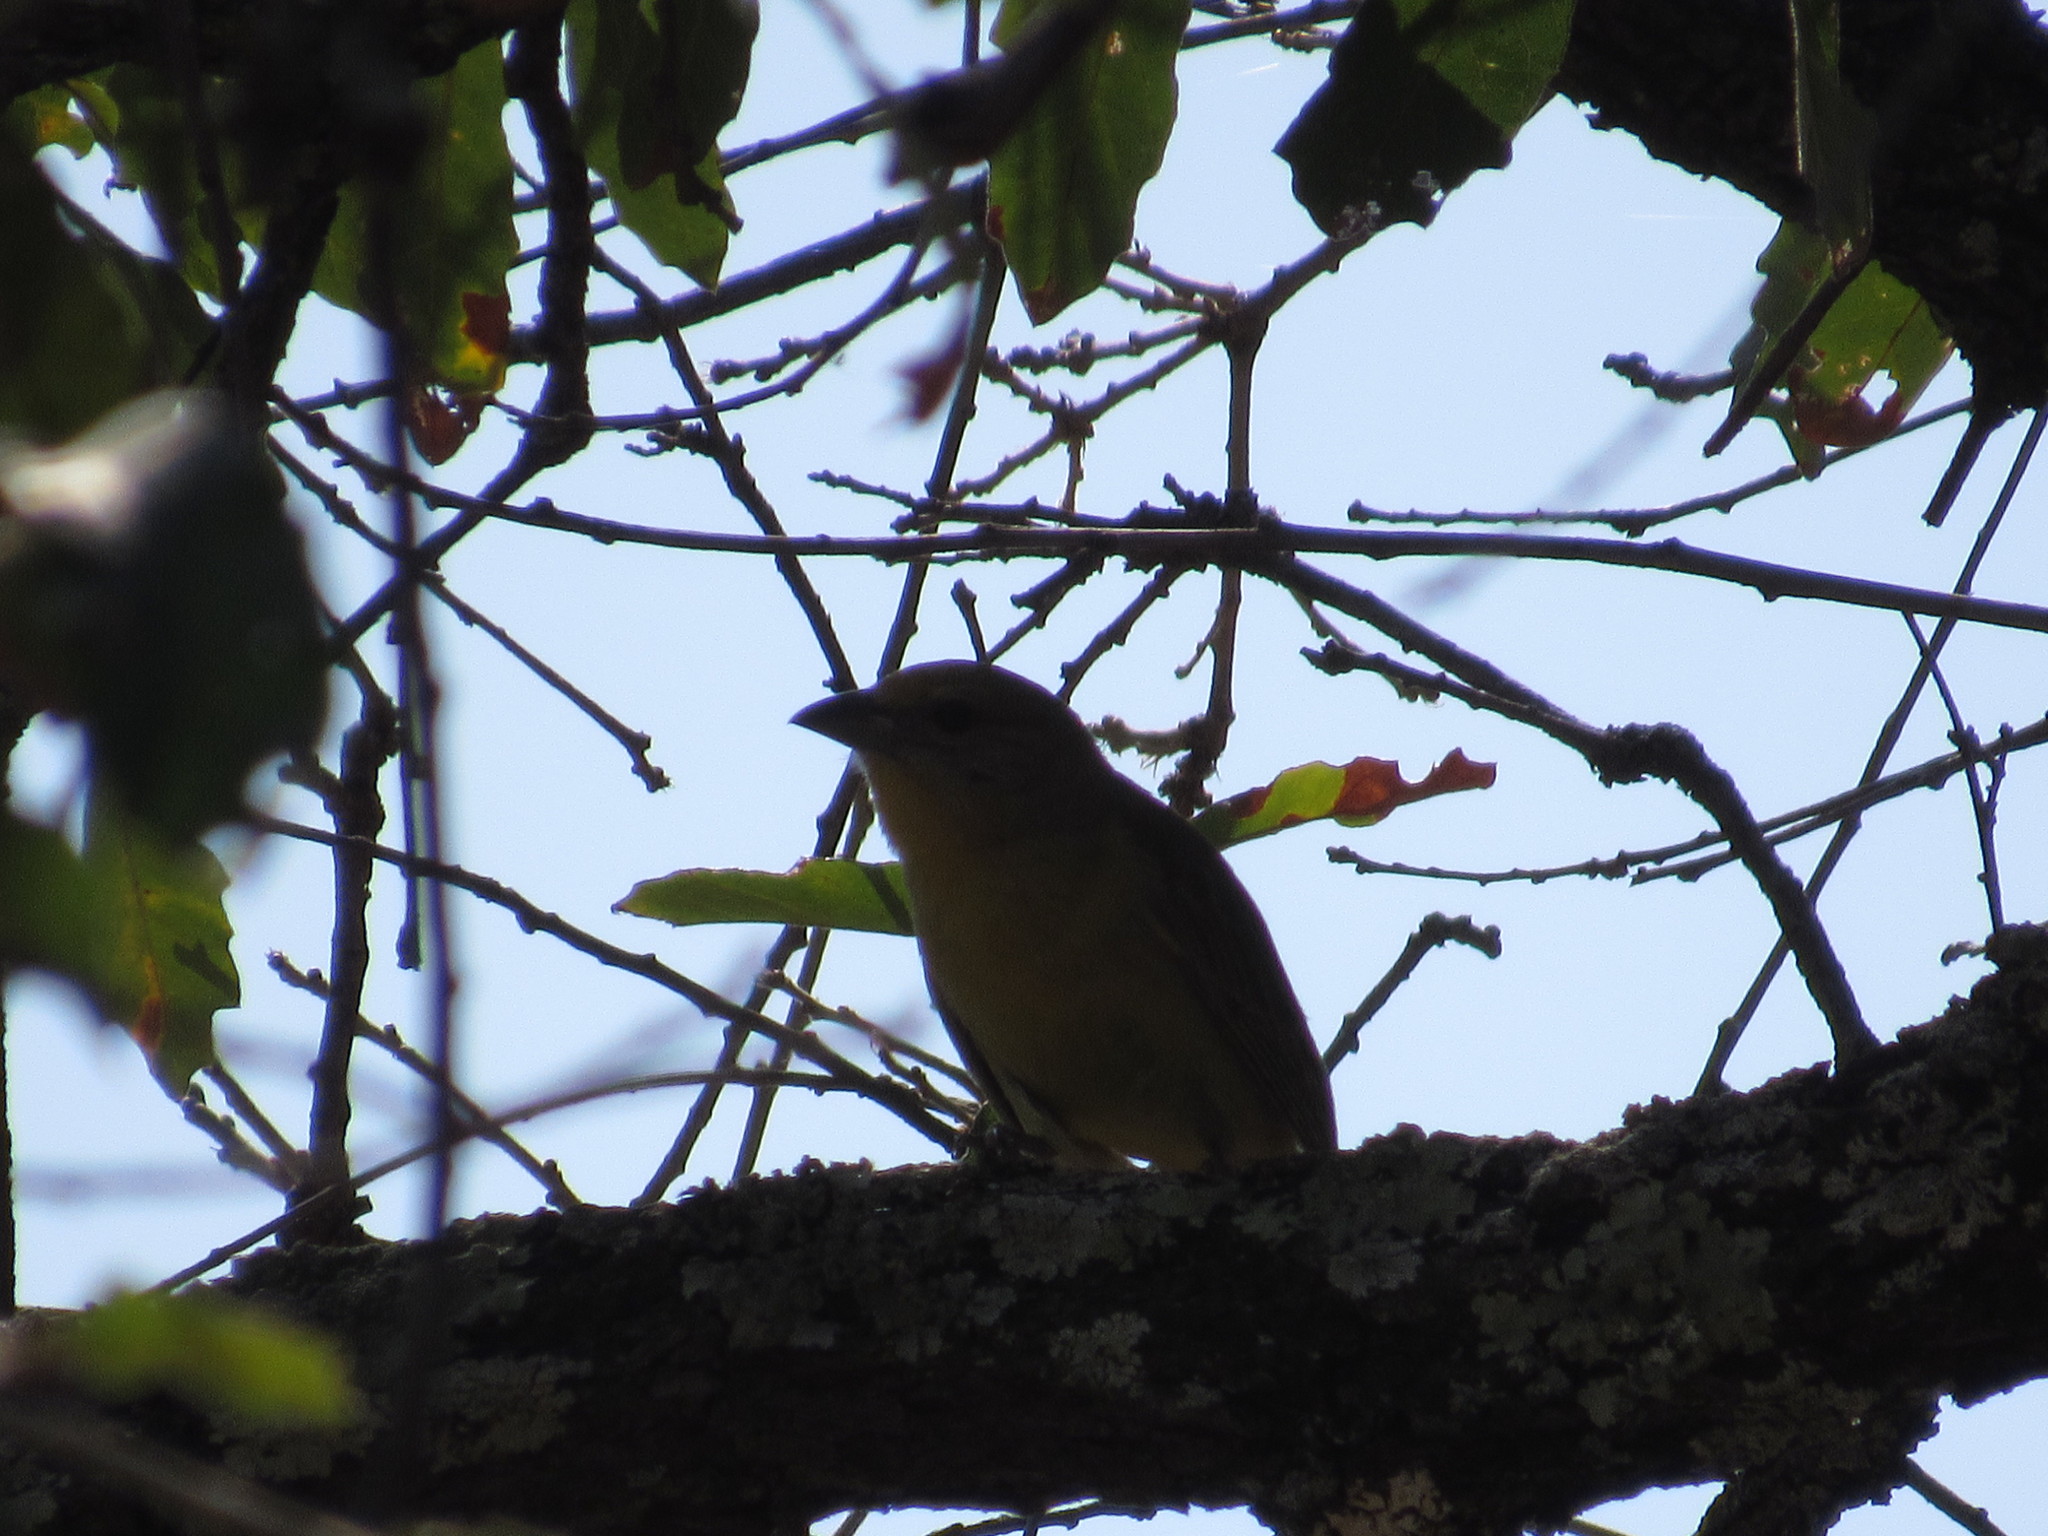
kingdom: Animalia
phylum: Chordata
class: Aves
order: Passeriformes
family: Cardinalidae
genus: Piranga
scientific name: Piranga flava
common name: Red tanager
